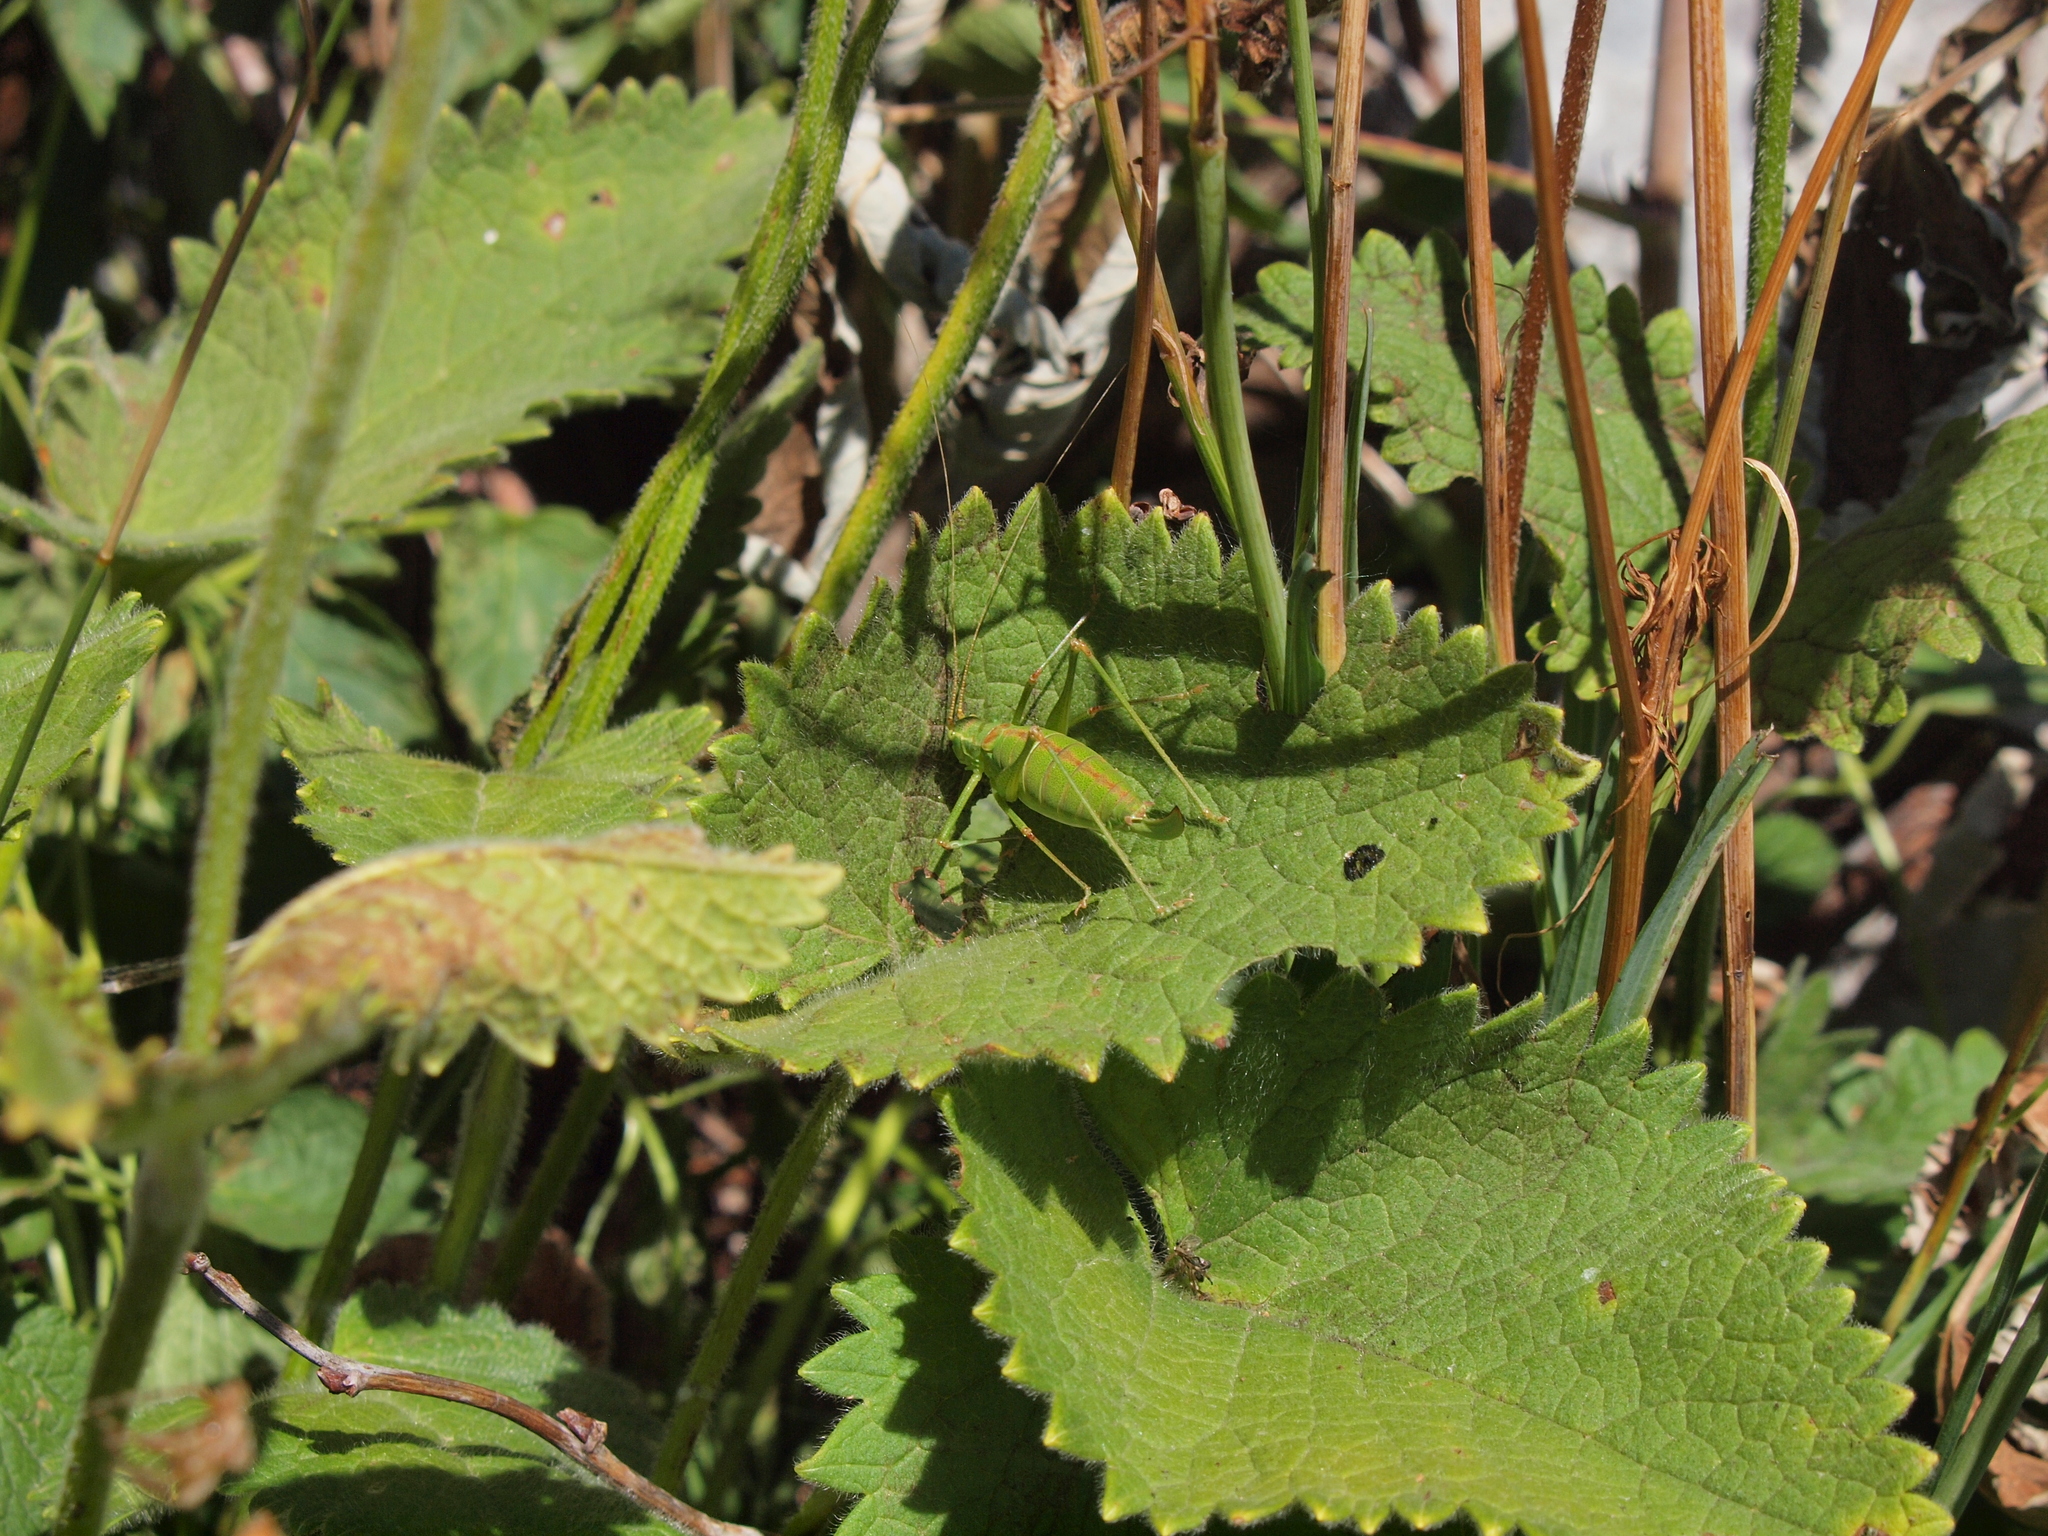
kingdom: Animalia
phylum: Arthropoda
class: Insecta
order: Orthoptera
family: Tettigoniidae
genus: Leptophyes
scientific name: Leptophyes intermedia
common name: Montenegrin speckled bush-cricket
